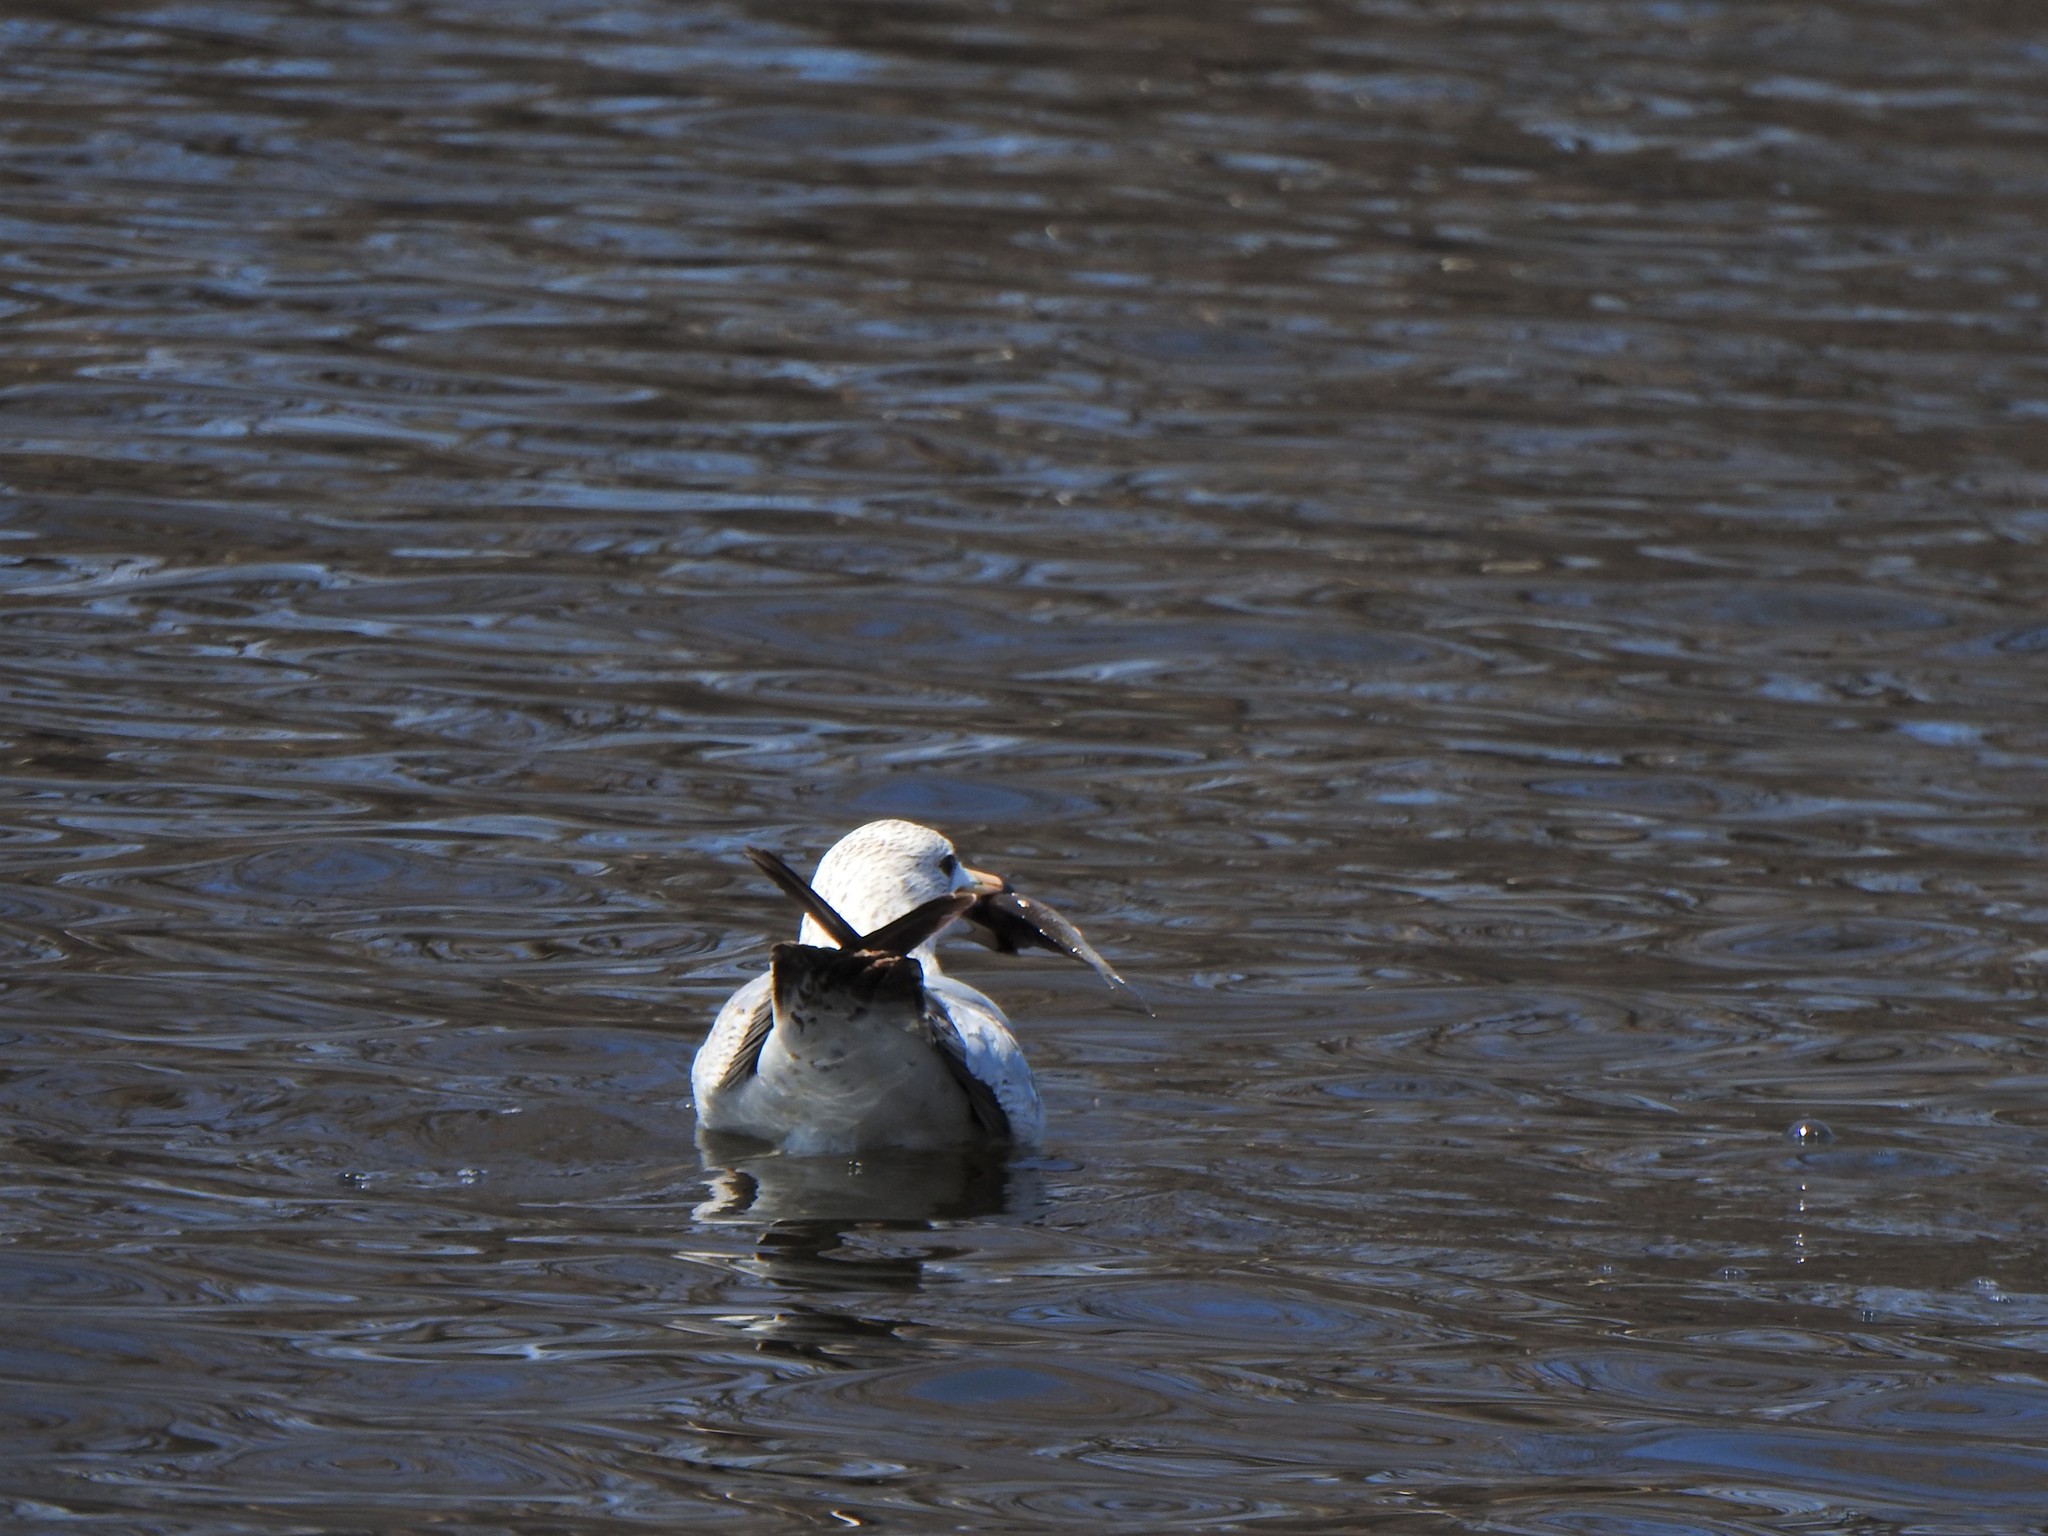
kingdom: Animalia
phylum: Chordata
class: Aves
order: Charadriiformes
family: Laridae
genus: Larus
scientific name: Larus delawarensis
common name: Ring-billed gull
